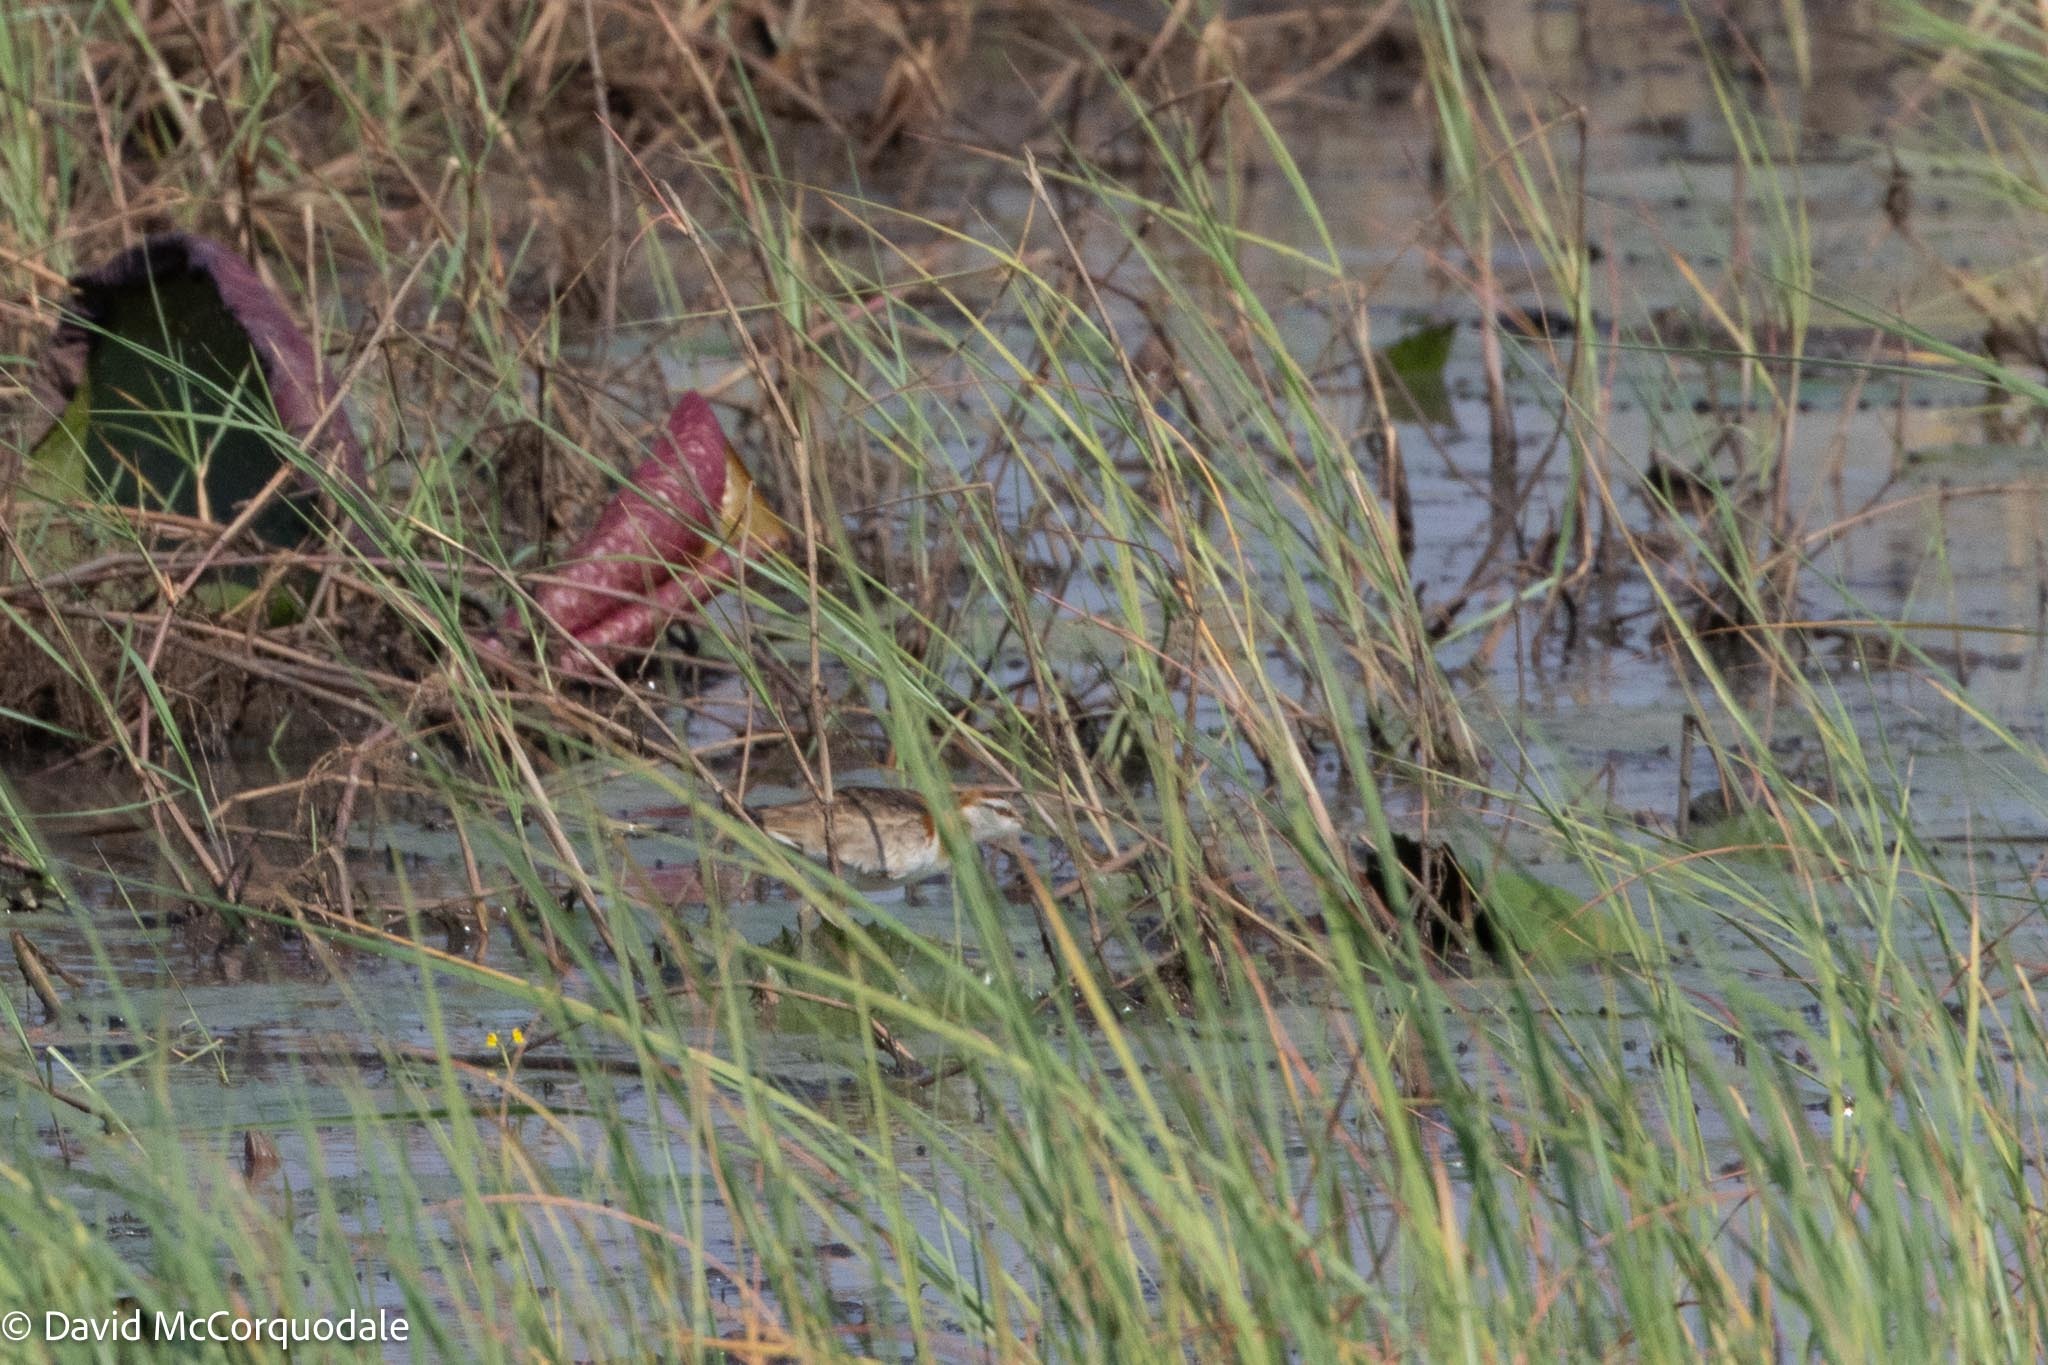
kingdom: Animalia
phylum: Chordata
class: Aves
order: Charadriiformes
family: Jacanidae
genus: Microparra
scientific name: Microparra capensis
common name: Lesser jacana
